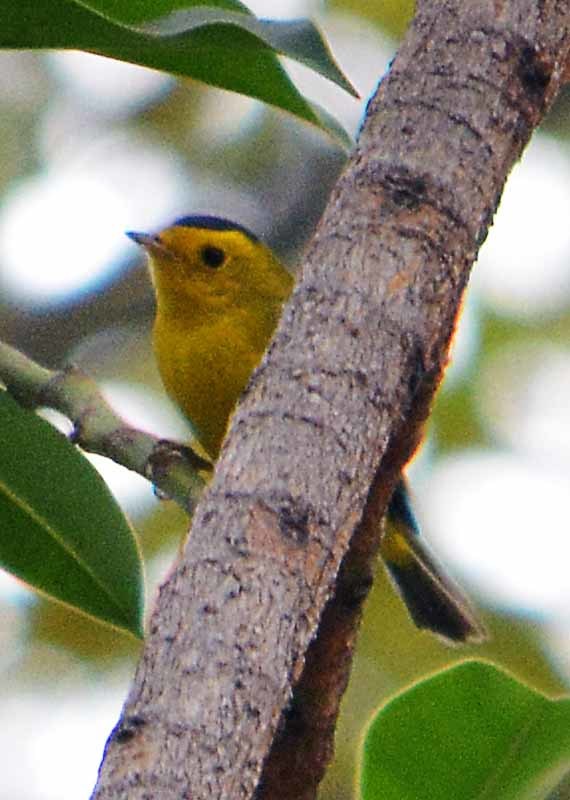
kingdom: Animalia
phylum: Chordata
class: Aves
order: Passeriformes
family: Parulidae
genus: Cardellina
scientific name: Cardellina pusilla
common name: Wilson's warbler
